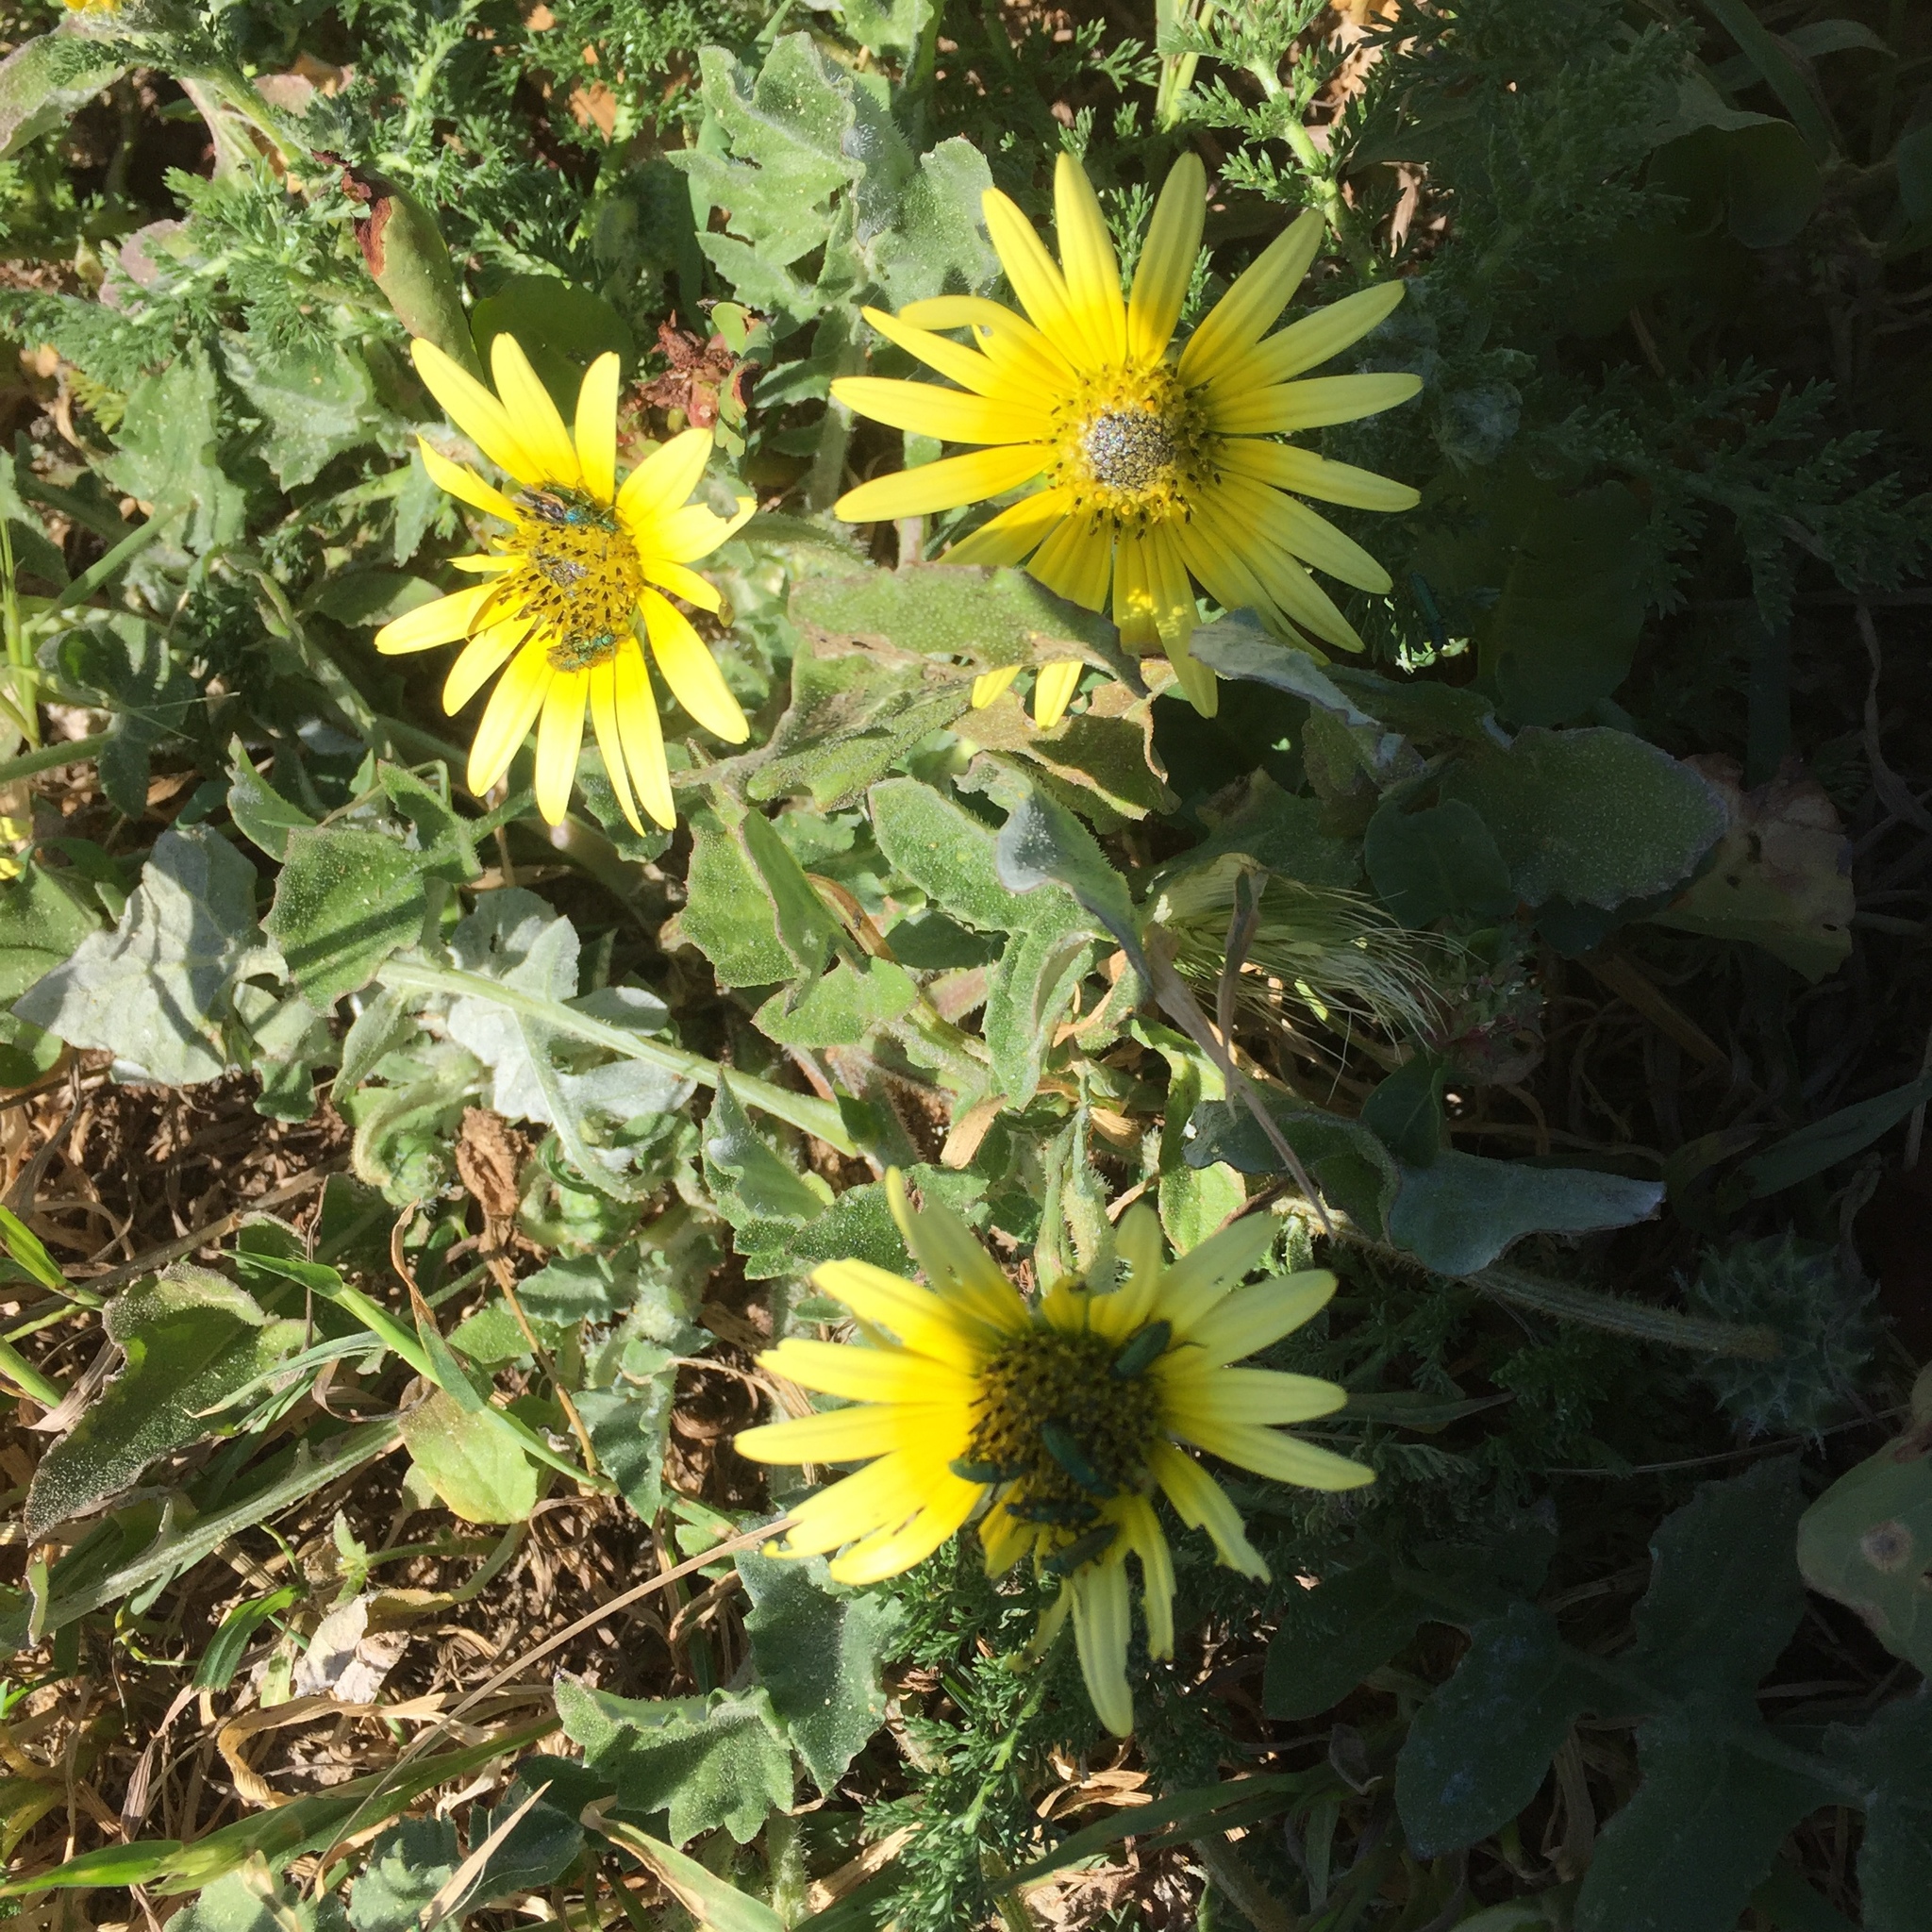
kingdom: Plantae
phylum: Tracheophyta
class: Magnoliopsida
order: Asterales
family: Asteraceae
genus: Arctotheca
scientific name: Arctotheca calendula
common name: Capeweed
